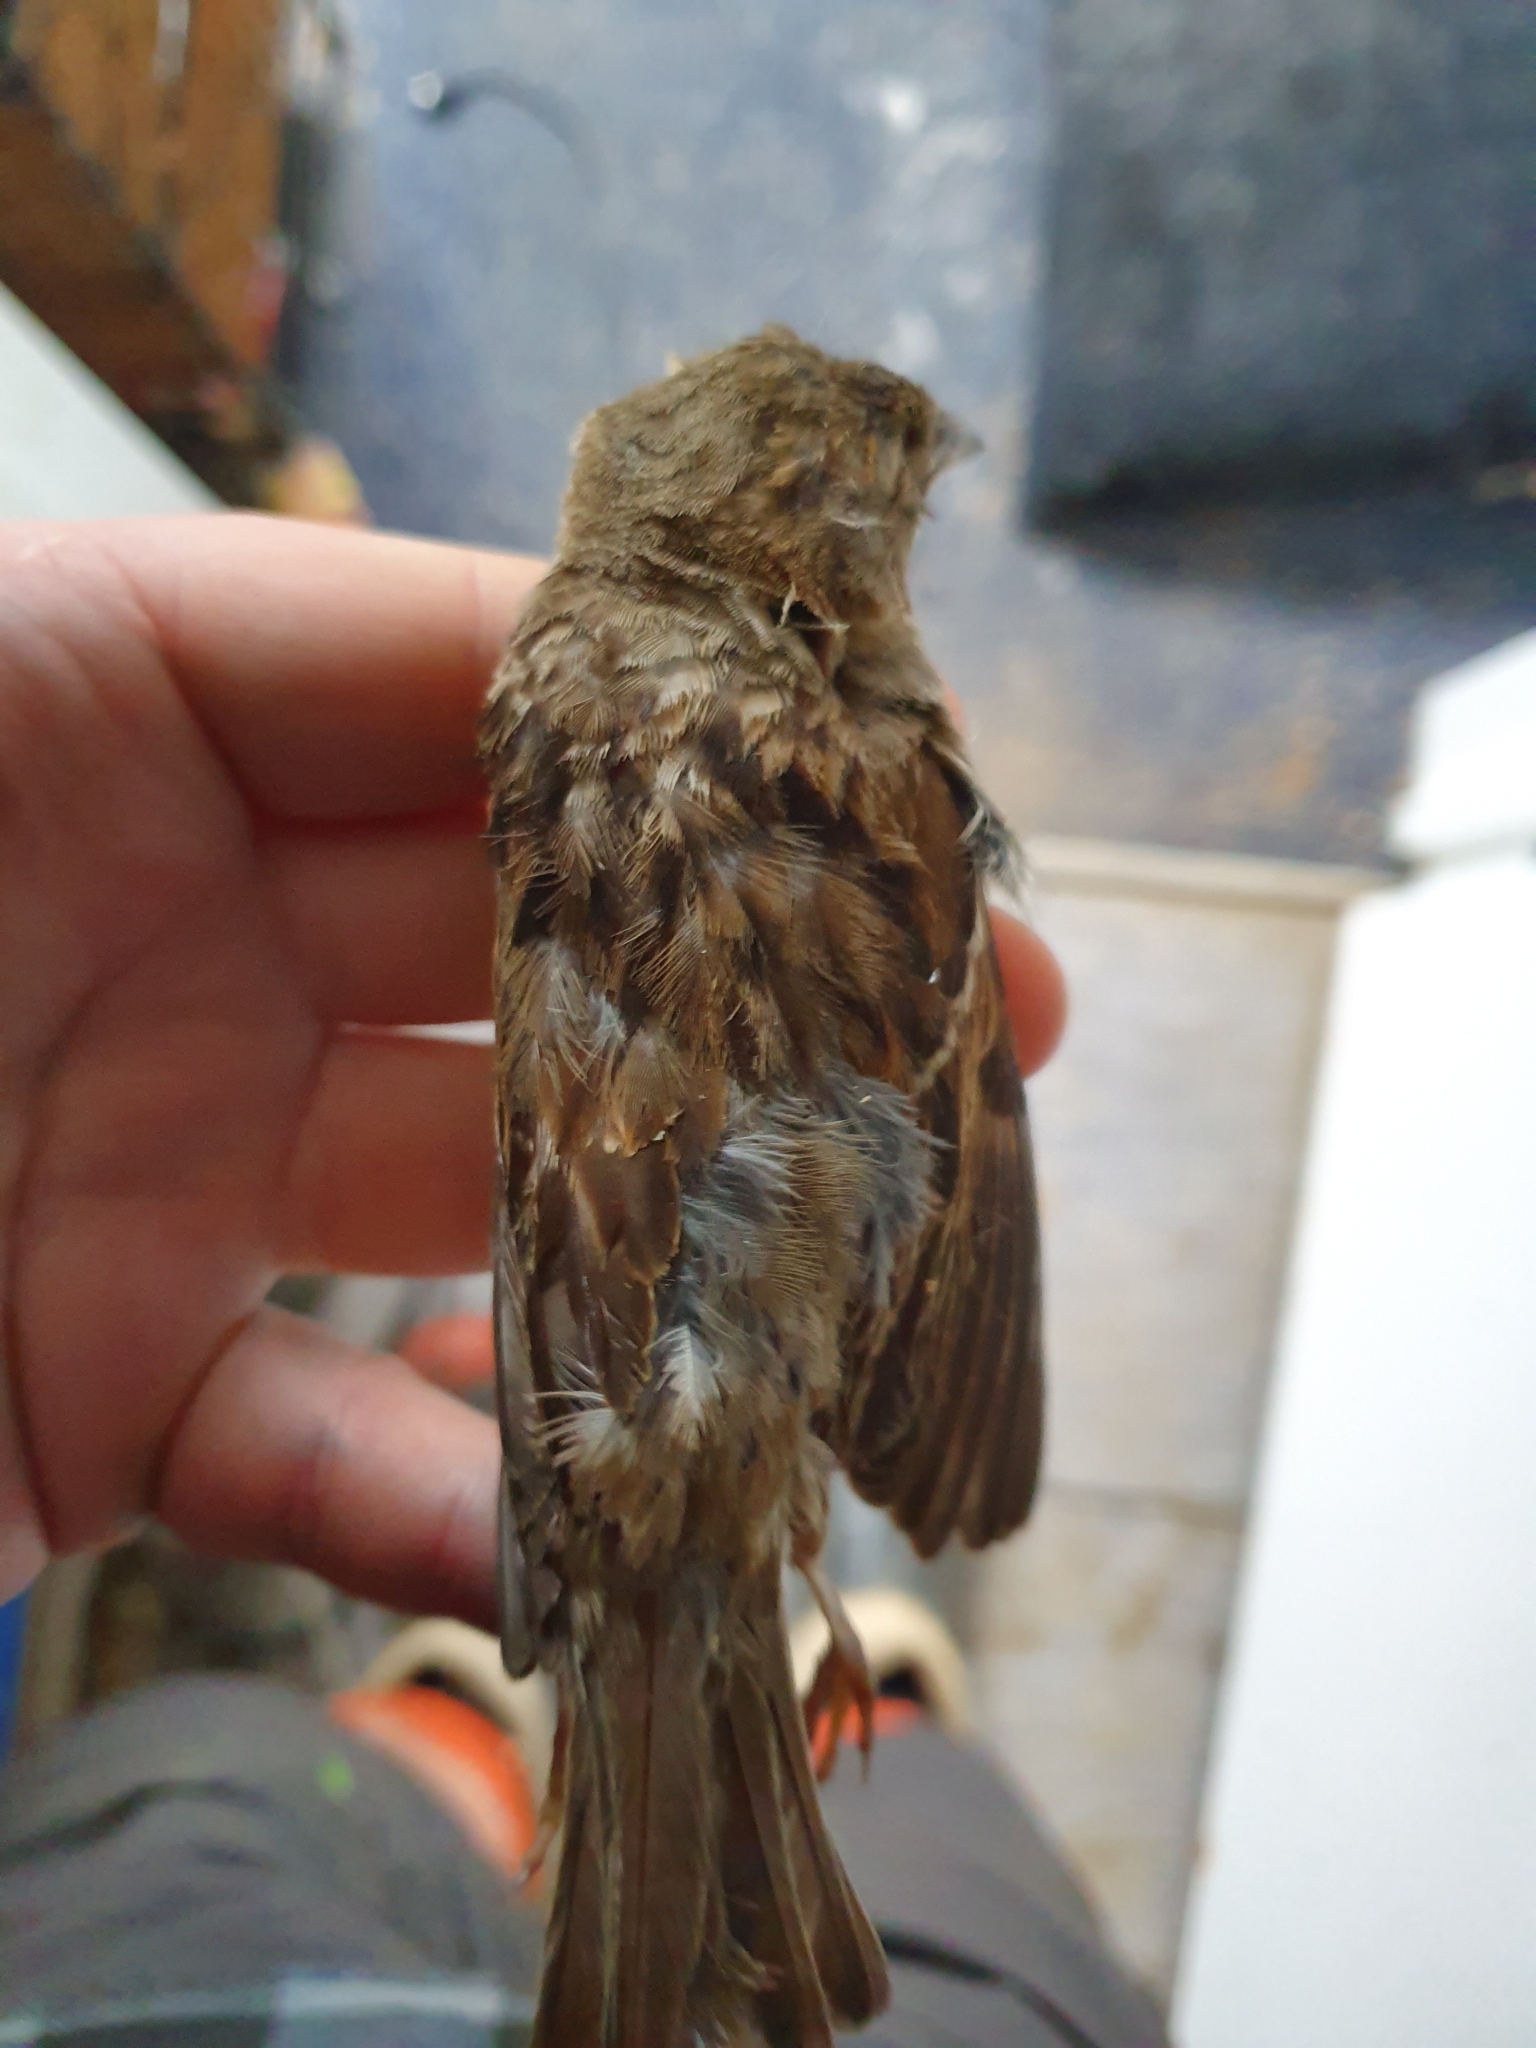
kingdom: Animalia
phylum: Chordata
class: Aves
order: Passeriformes
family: Passeridae
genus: Passer
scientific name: Passer domesticus
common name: House sparrow
